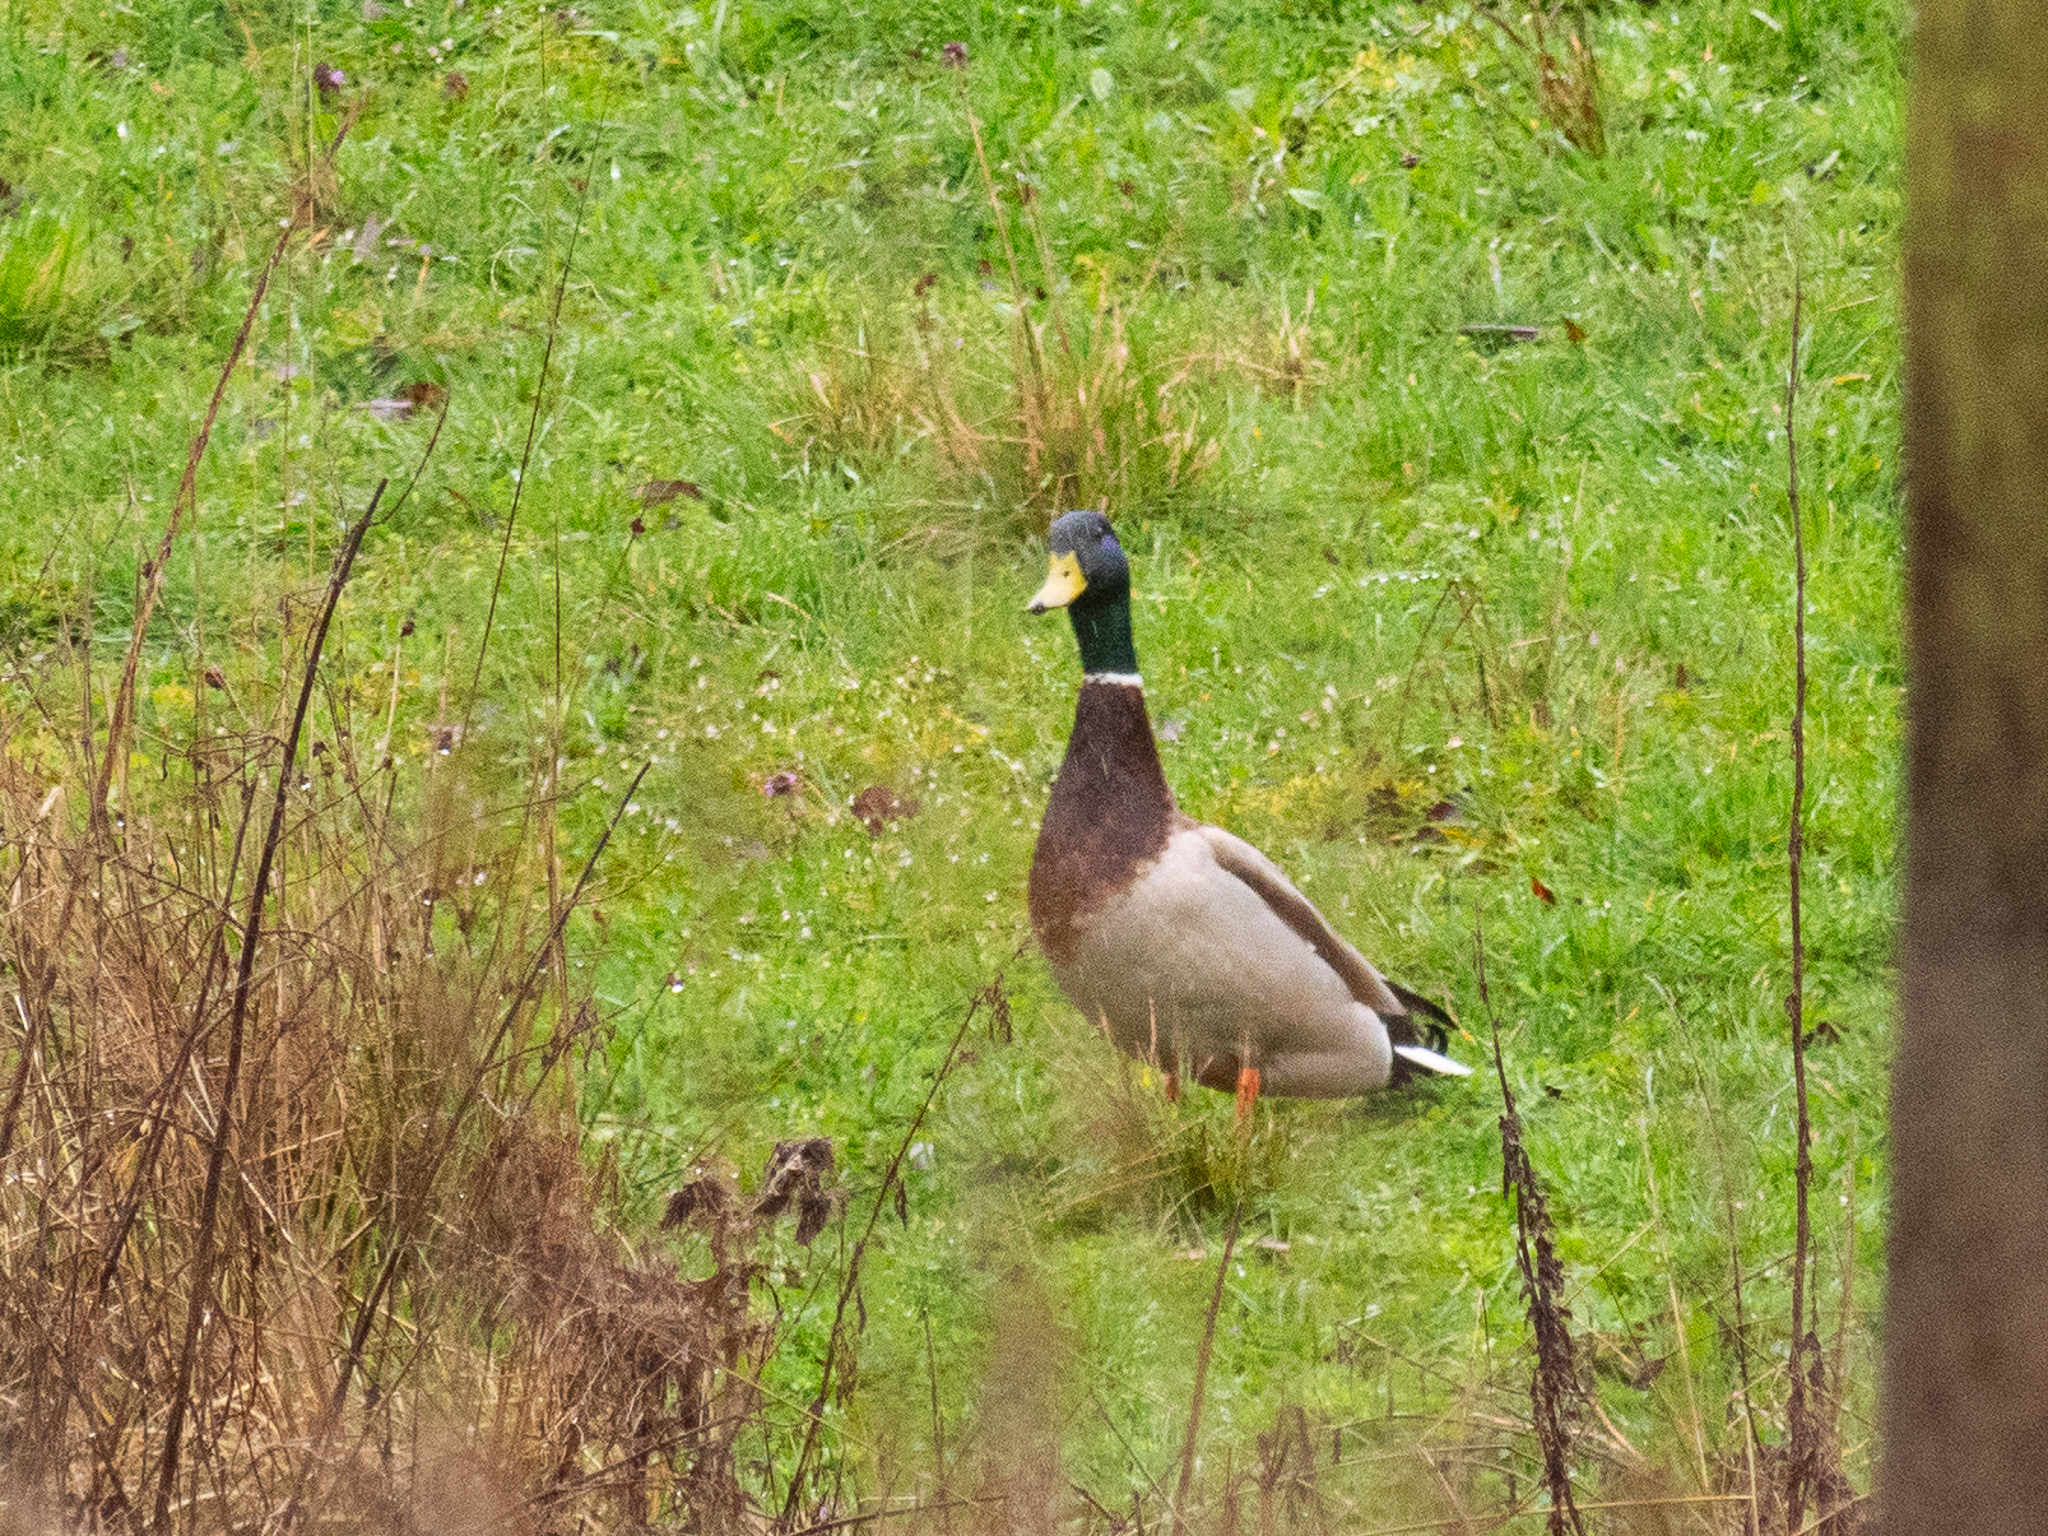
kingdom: Animalia
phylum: Chordata
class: Aves
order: Anseriformes
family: Anatidae
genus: Anas
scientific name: Anas platyrhynchos
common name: Mallard
